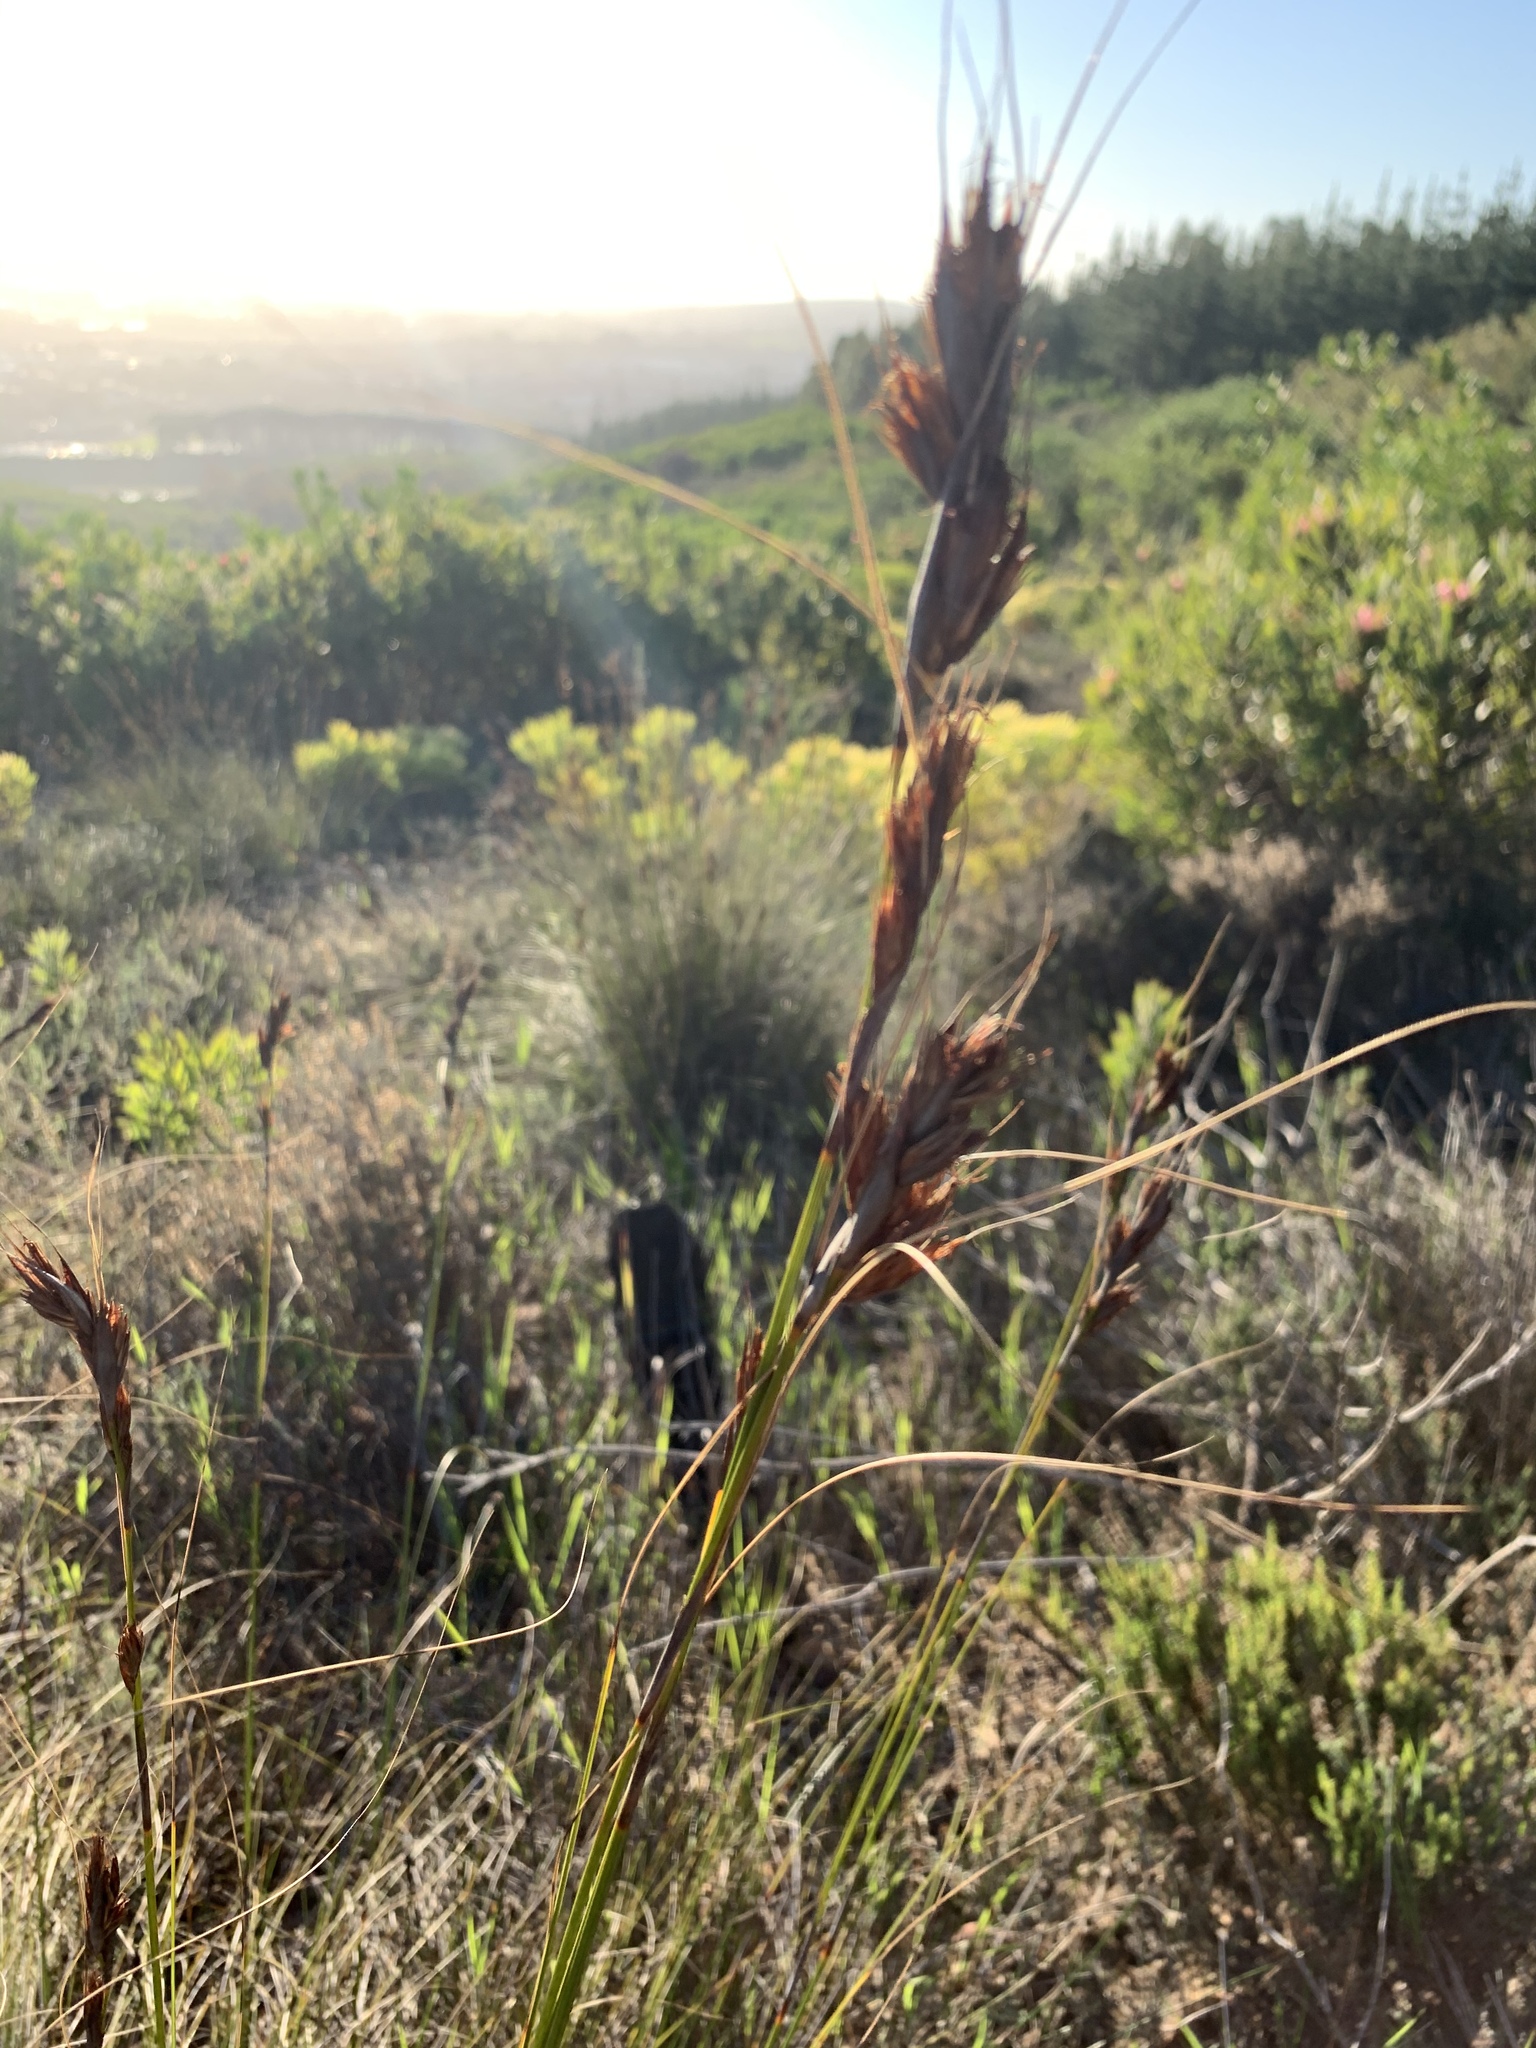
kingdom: Plantae
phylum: Tracheophyta
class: Liliopsida
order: Poales
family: Cyperaceae
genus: Tetraria
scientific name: Tetraria ustulata
